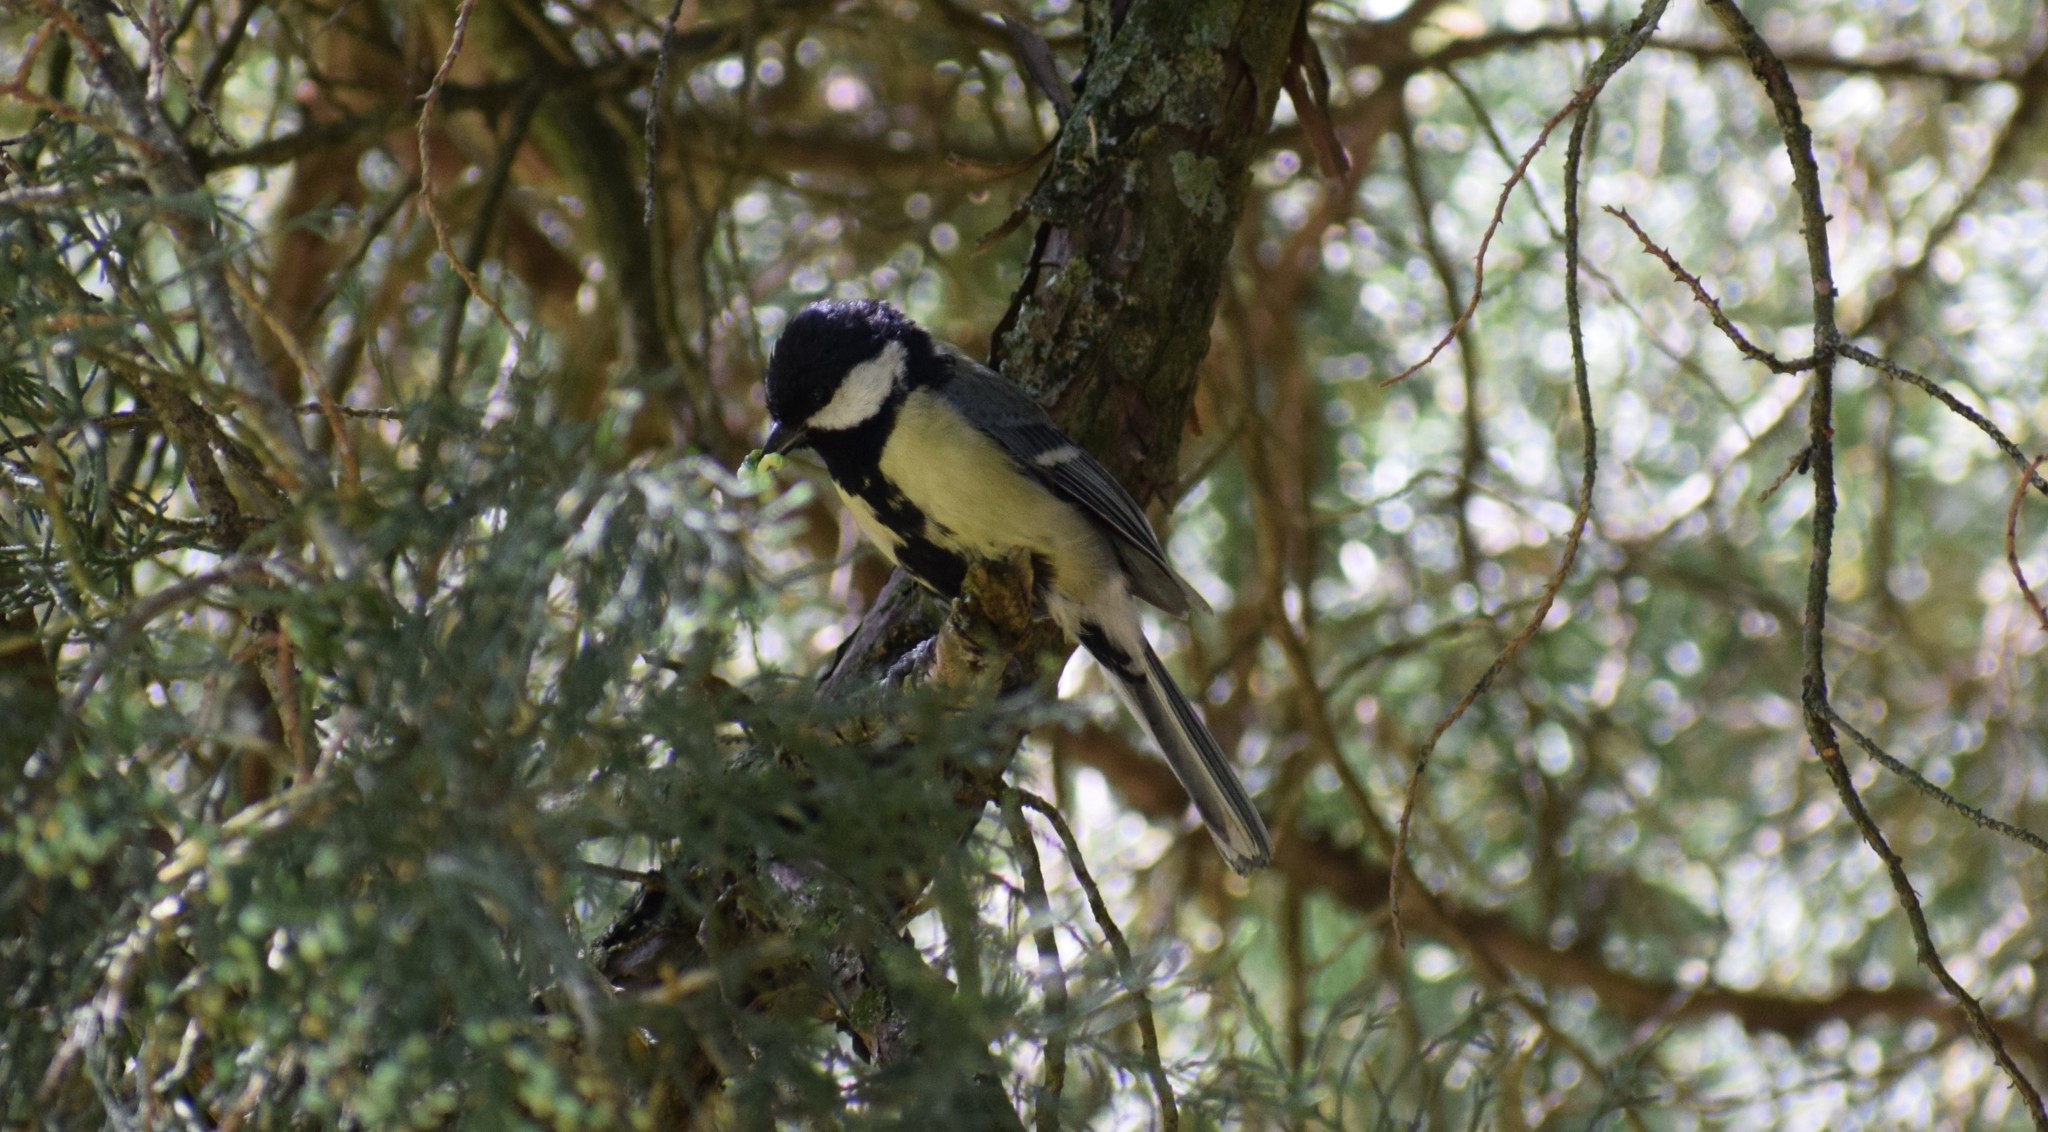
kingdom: Animalia
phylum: Chordata
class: Aves
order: Passeriformes
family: Paridae
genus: Parus
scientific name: Parus major
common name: Great tit
